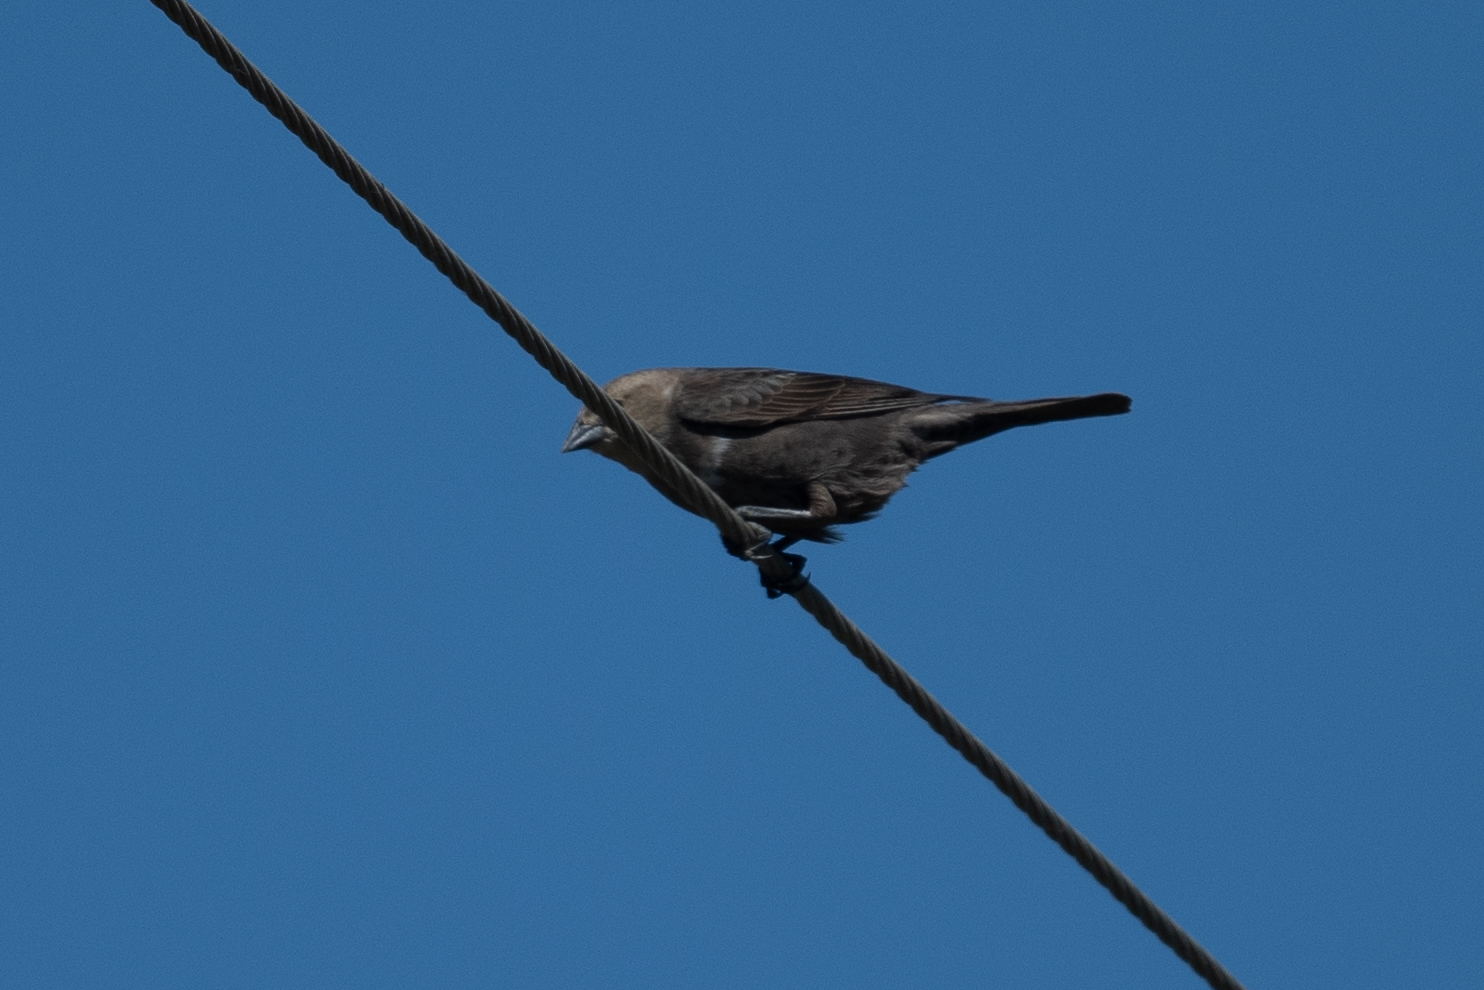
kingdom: Animalia
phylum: Chordata
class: Aves
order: Passeriformes
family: Icteridae
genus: Molothrus
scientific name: Molothrus ater
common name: Brown-headed cowbird
